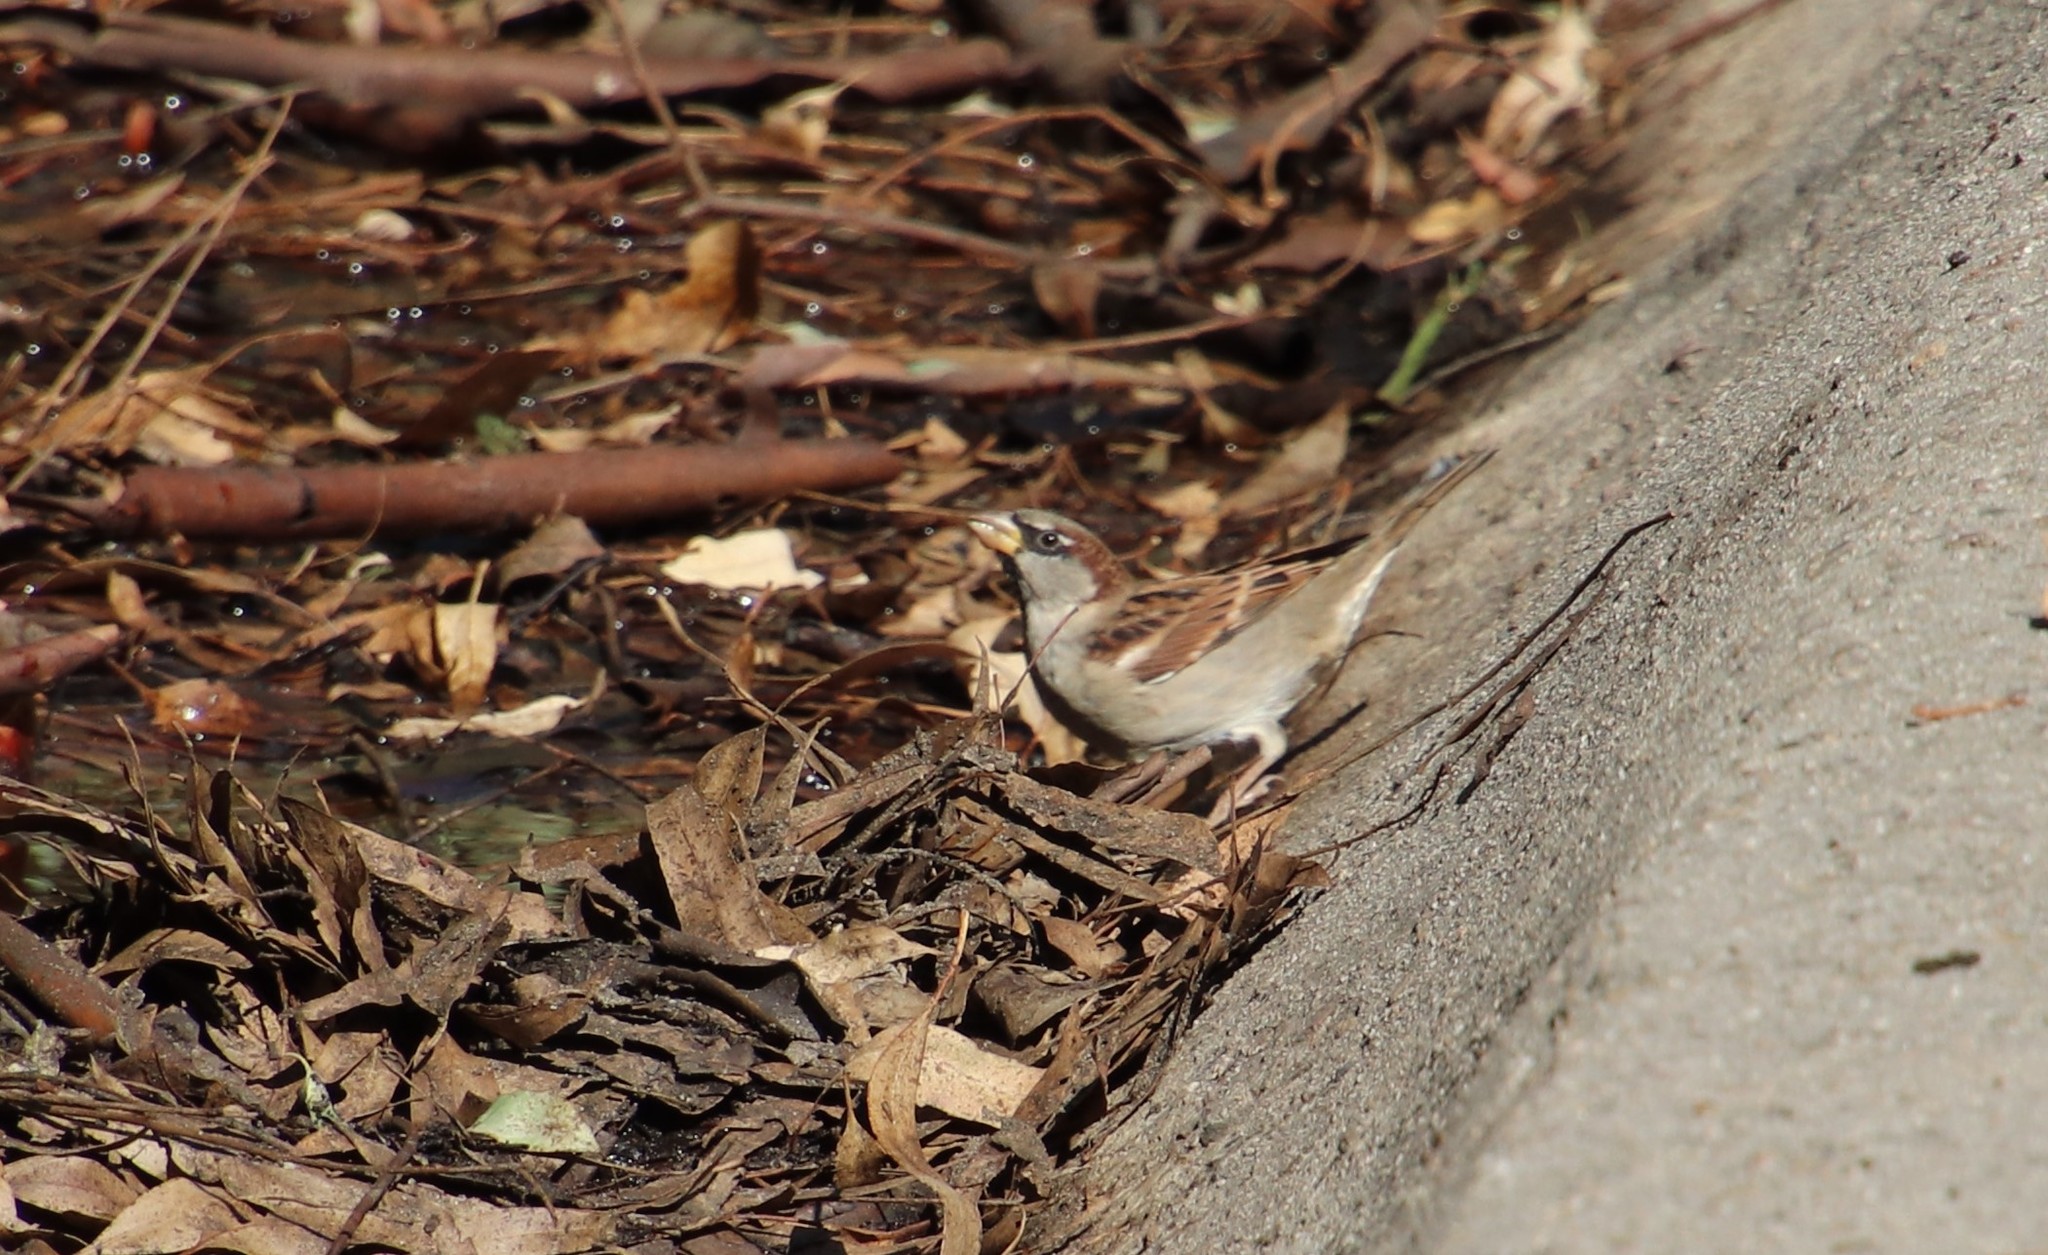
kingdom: Animalia
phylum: Chordata
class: Aves
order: Passeriformes
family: Passeridae
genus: Passer
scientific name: Passer domesticus
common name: House sparrow
